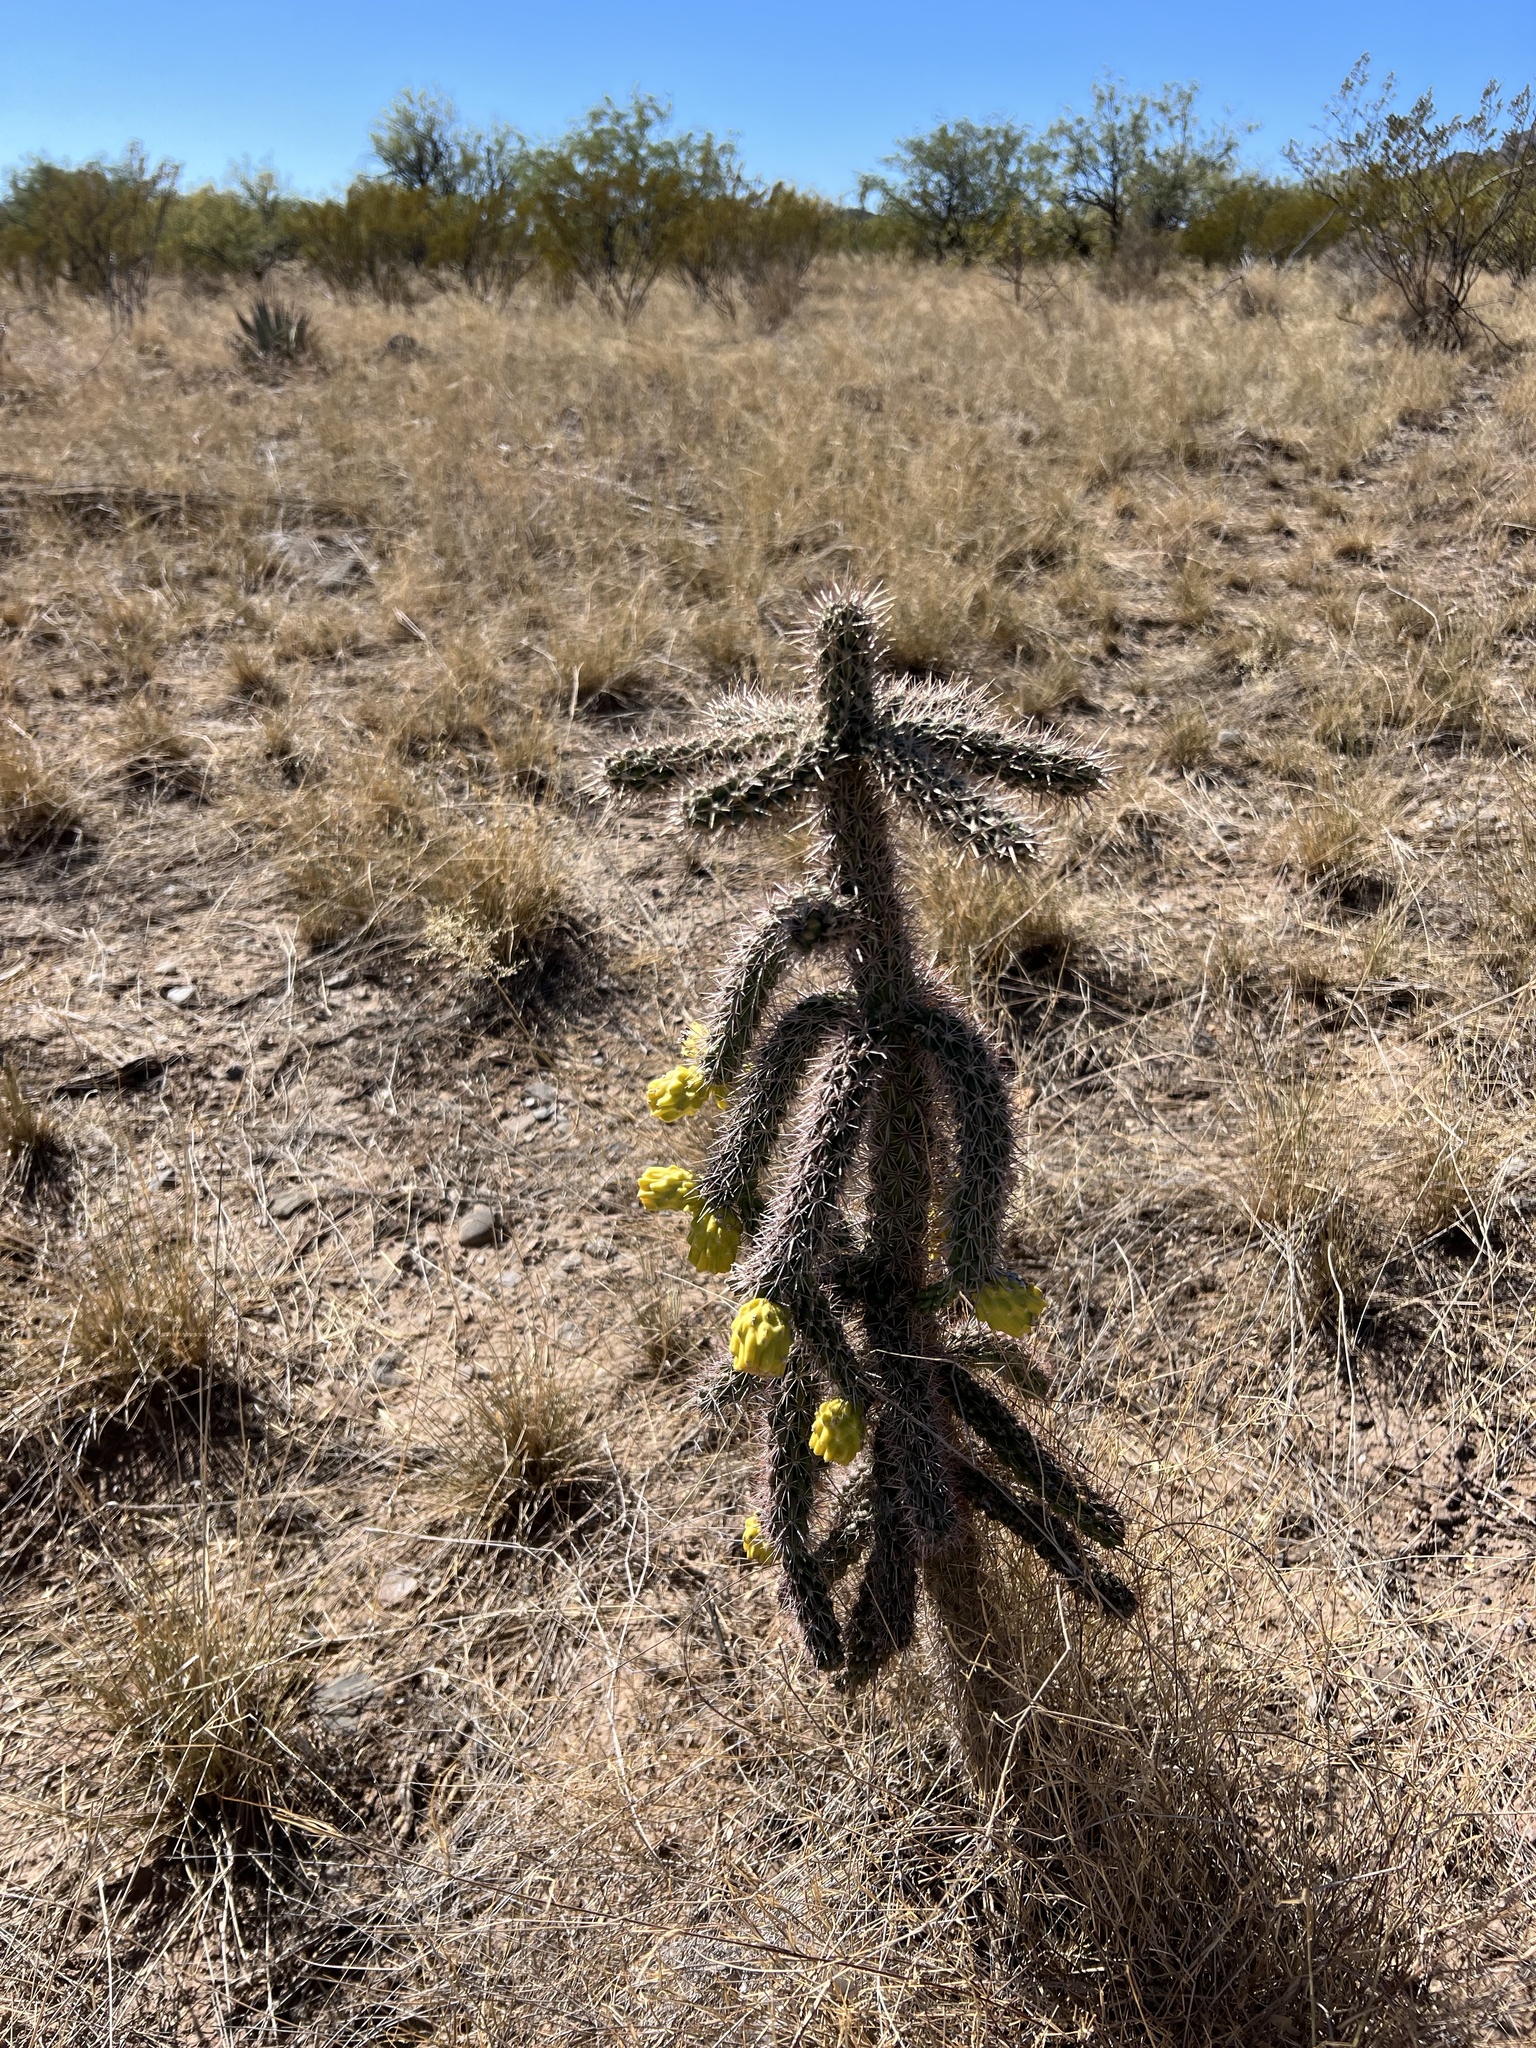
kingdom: Plantae
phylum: Tracheophyta
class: Magnoliopsida
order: Caryophyllales
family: Cactaceae
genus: Cylindropuntia
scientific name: Cylindropuntia imbricata
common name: Candelabrum cactus
